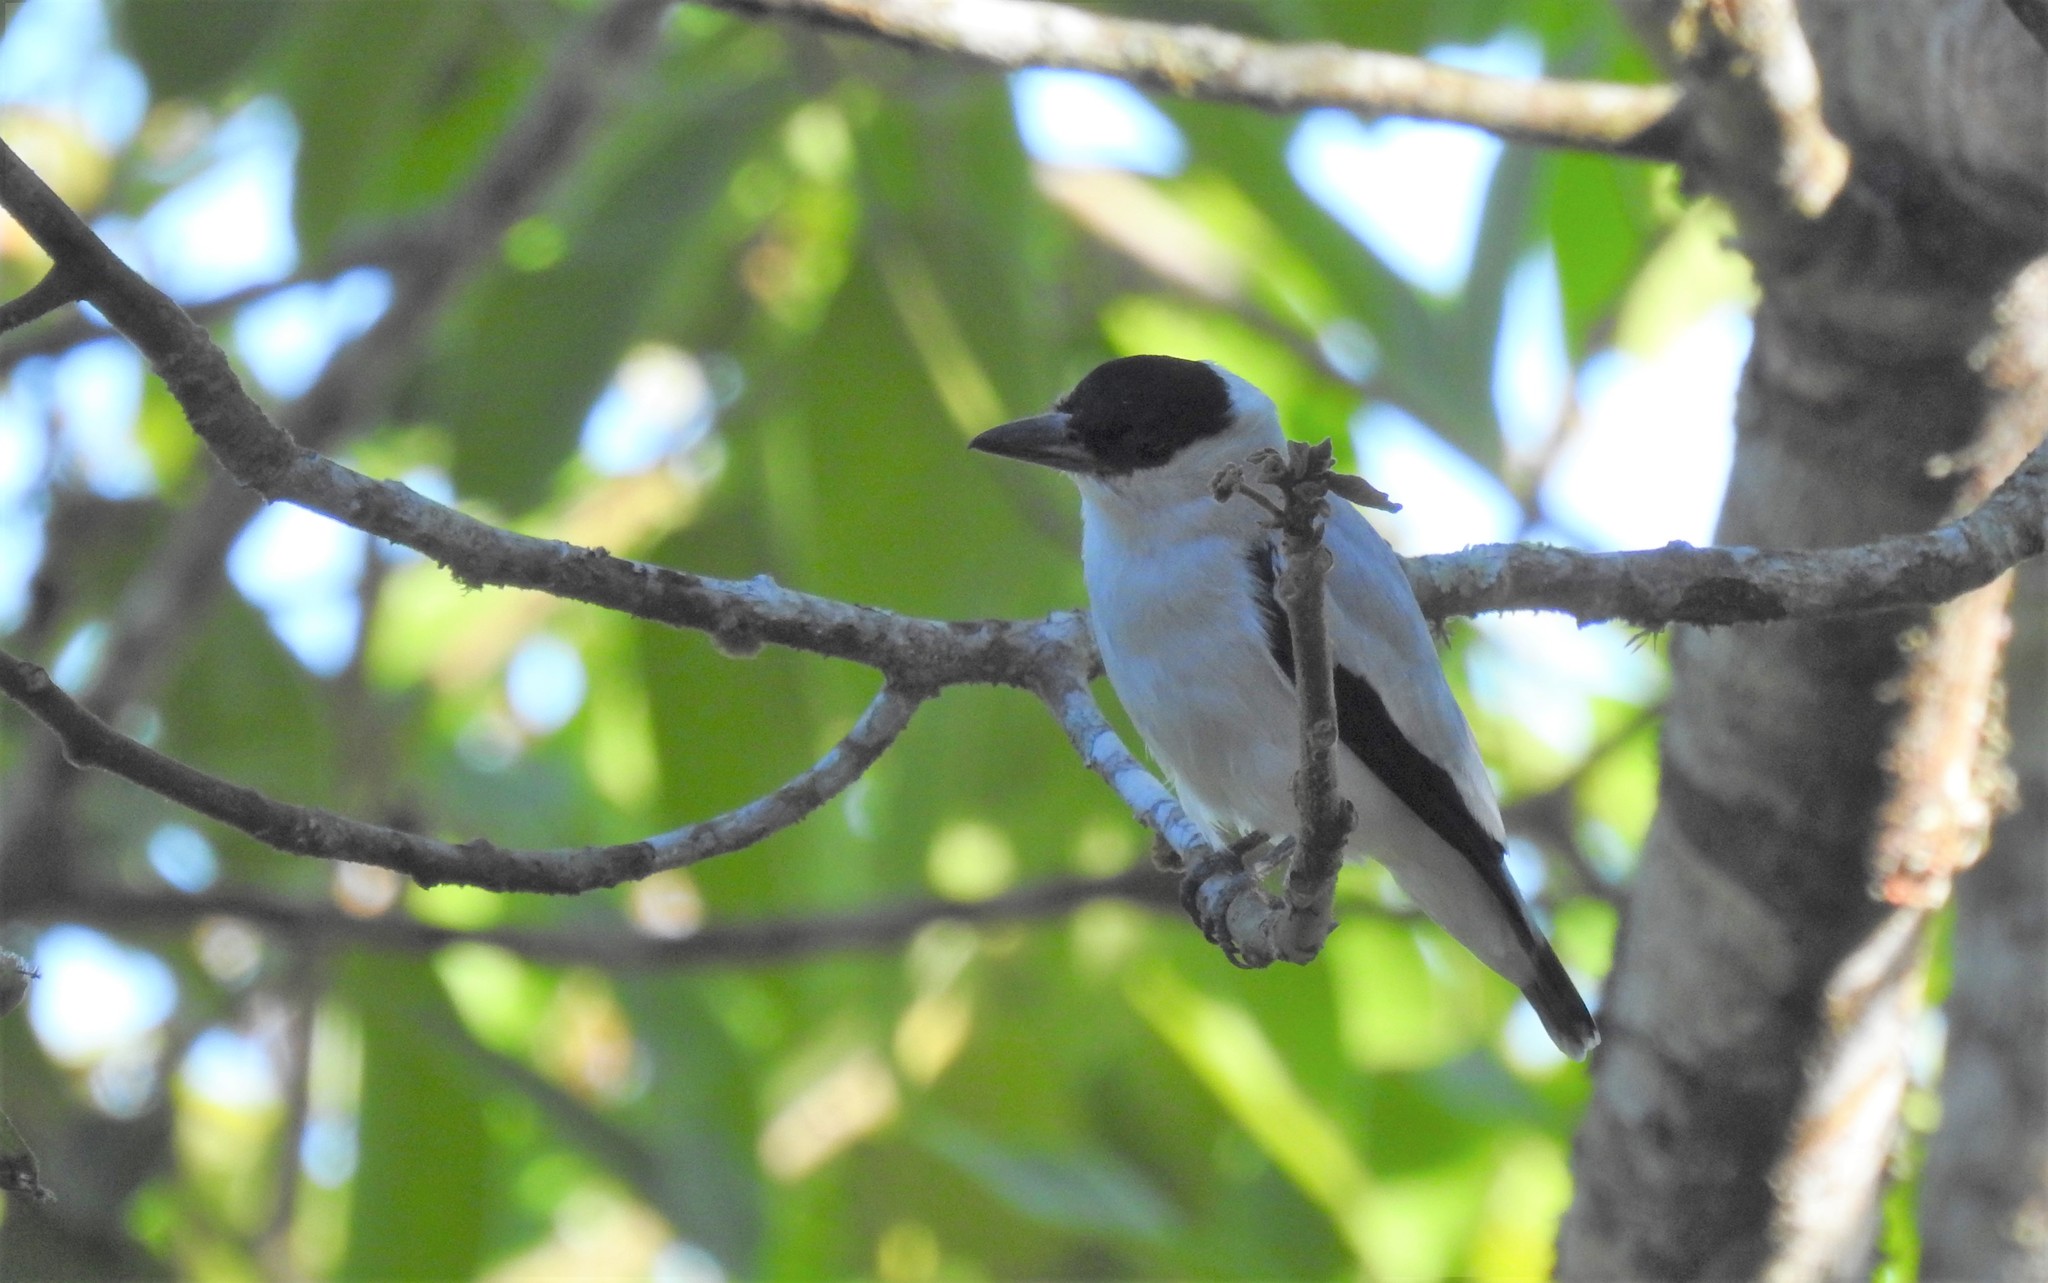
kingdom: Animalia
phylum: Chordata
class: Aves
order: Passeriformes
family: Cotingidae
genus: Tityra
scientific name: Tityra inquisitor
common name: Black-crowned tityra
